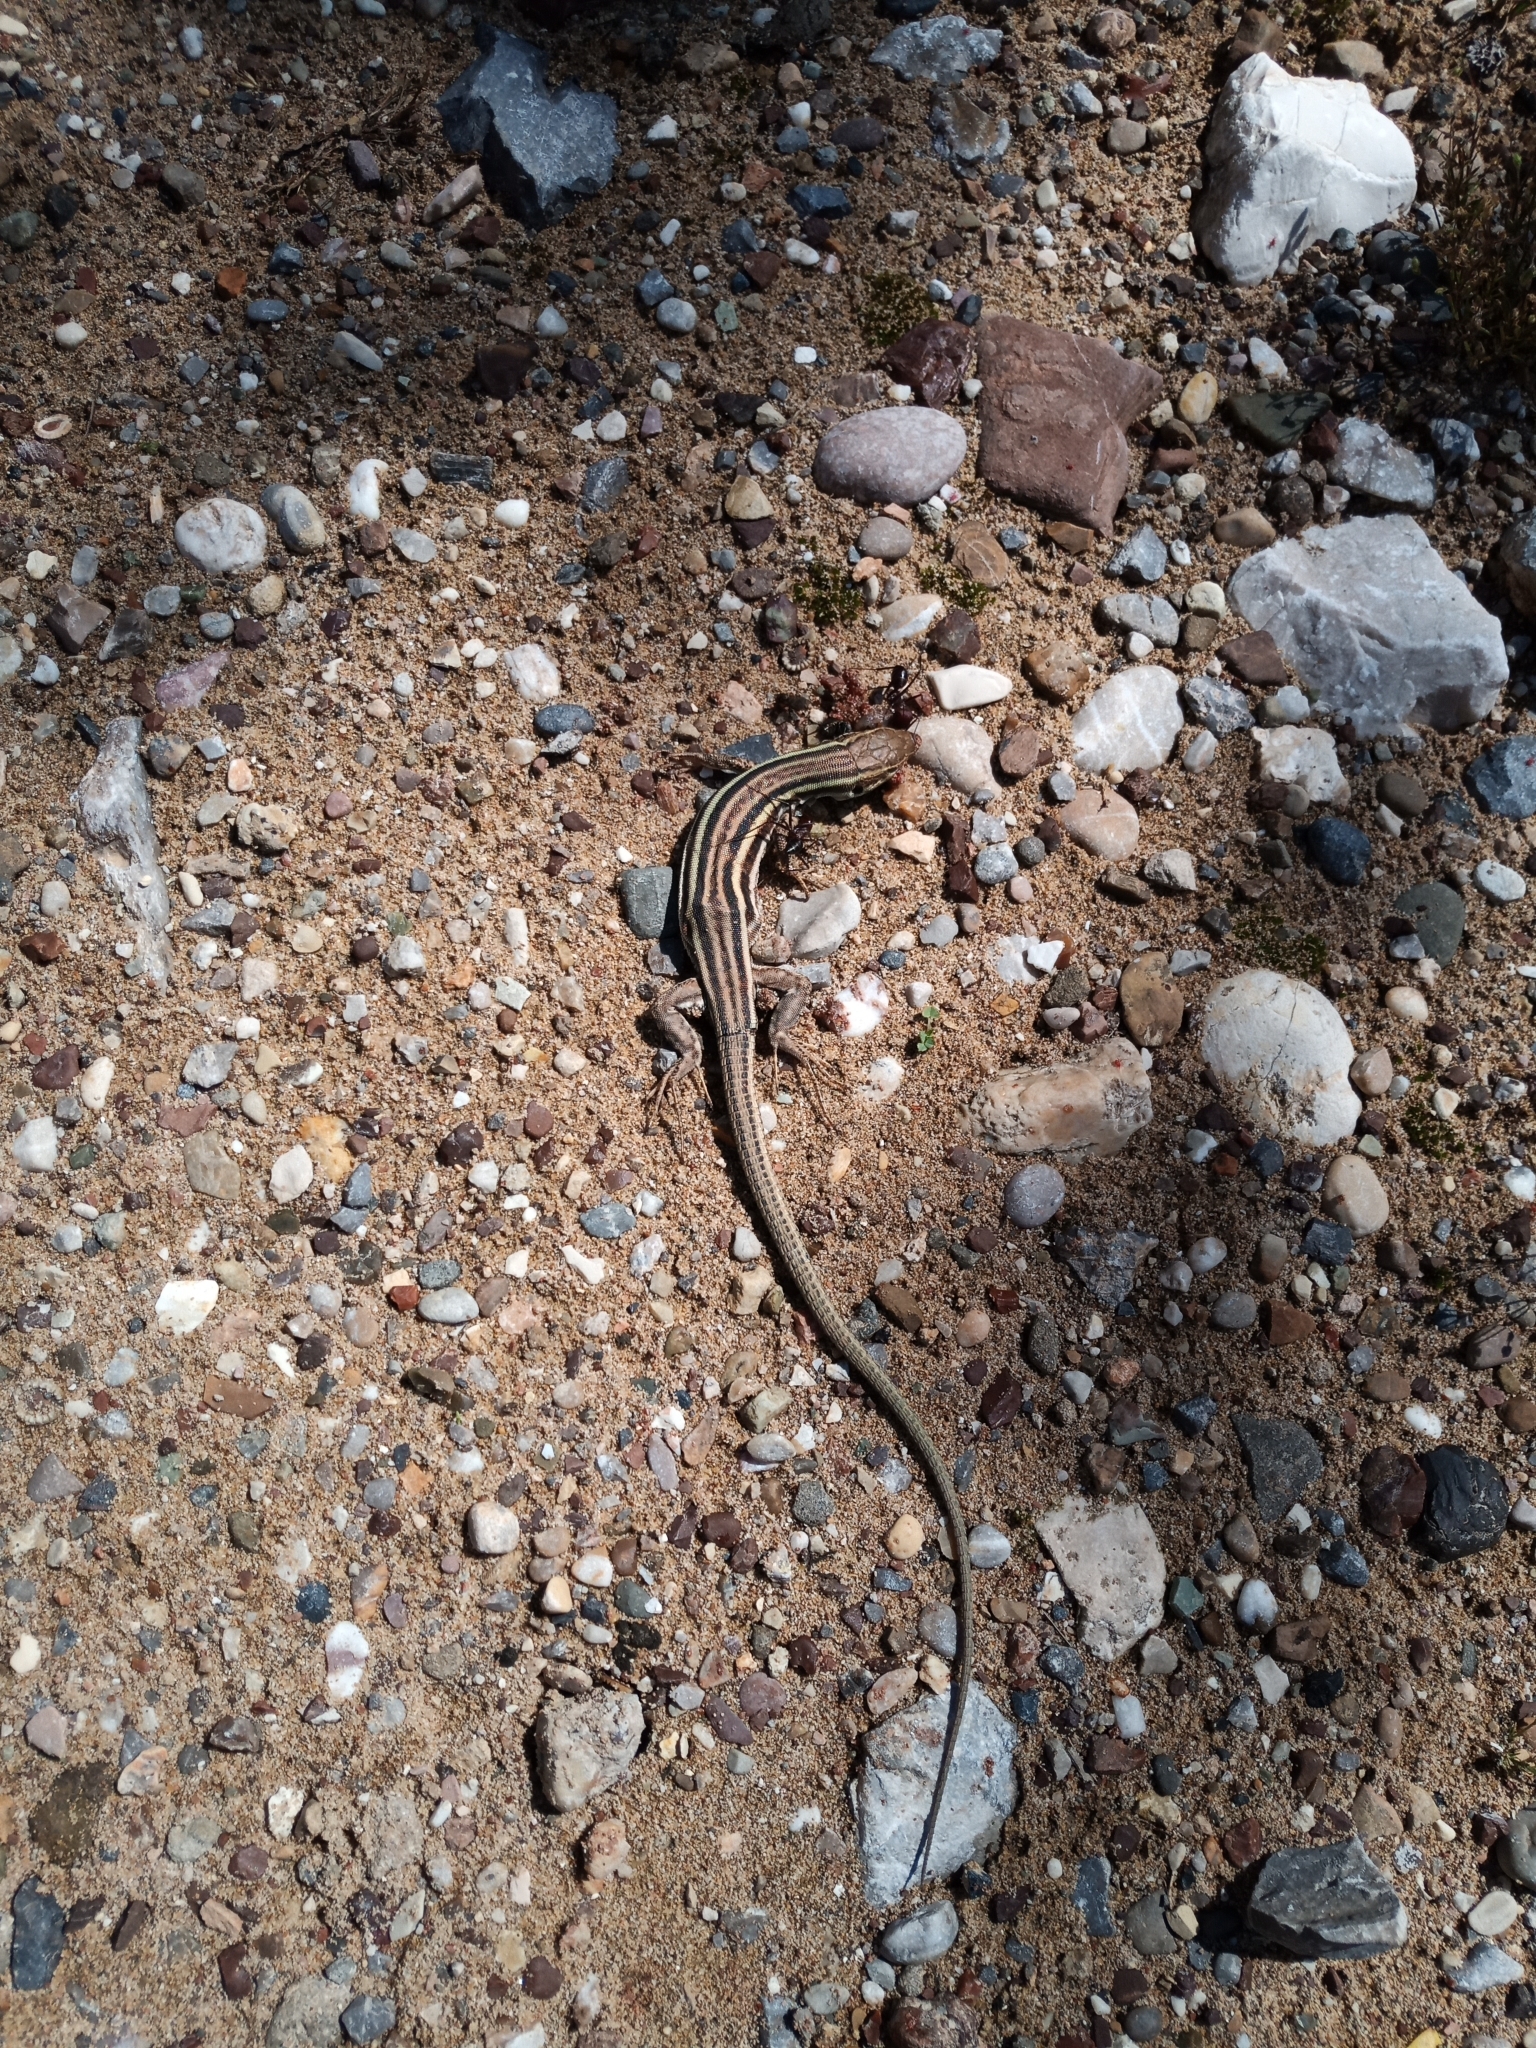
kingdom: Animalia
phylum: Chordata
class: Squamata
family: Lacertidae
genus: Podarcis
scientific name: Podarcis peloponnesiacus
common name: Peloponnese wall lizard
